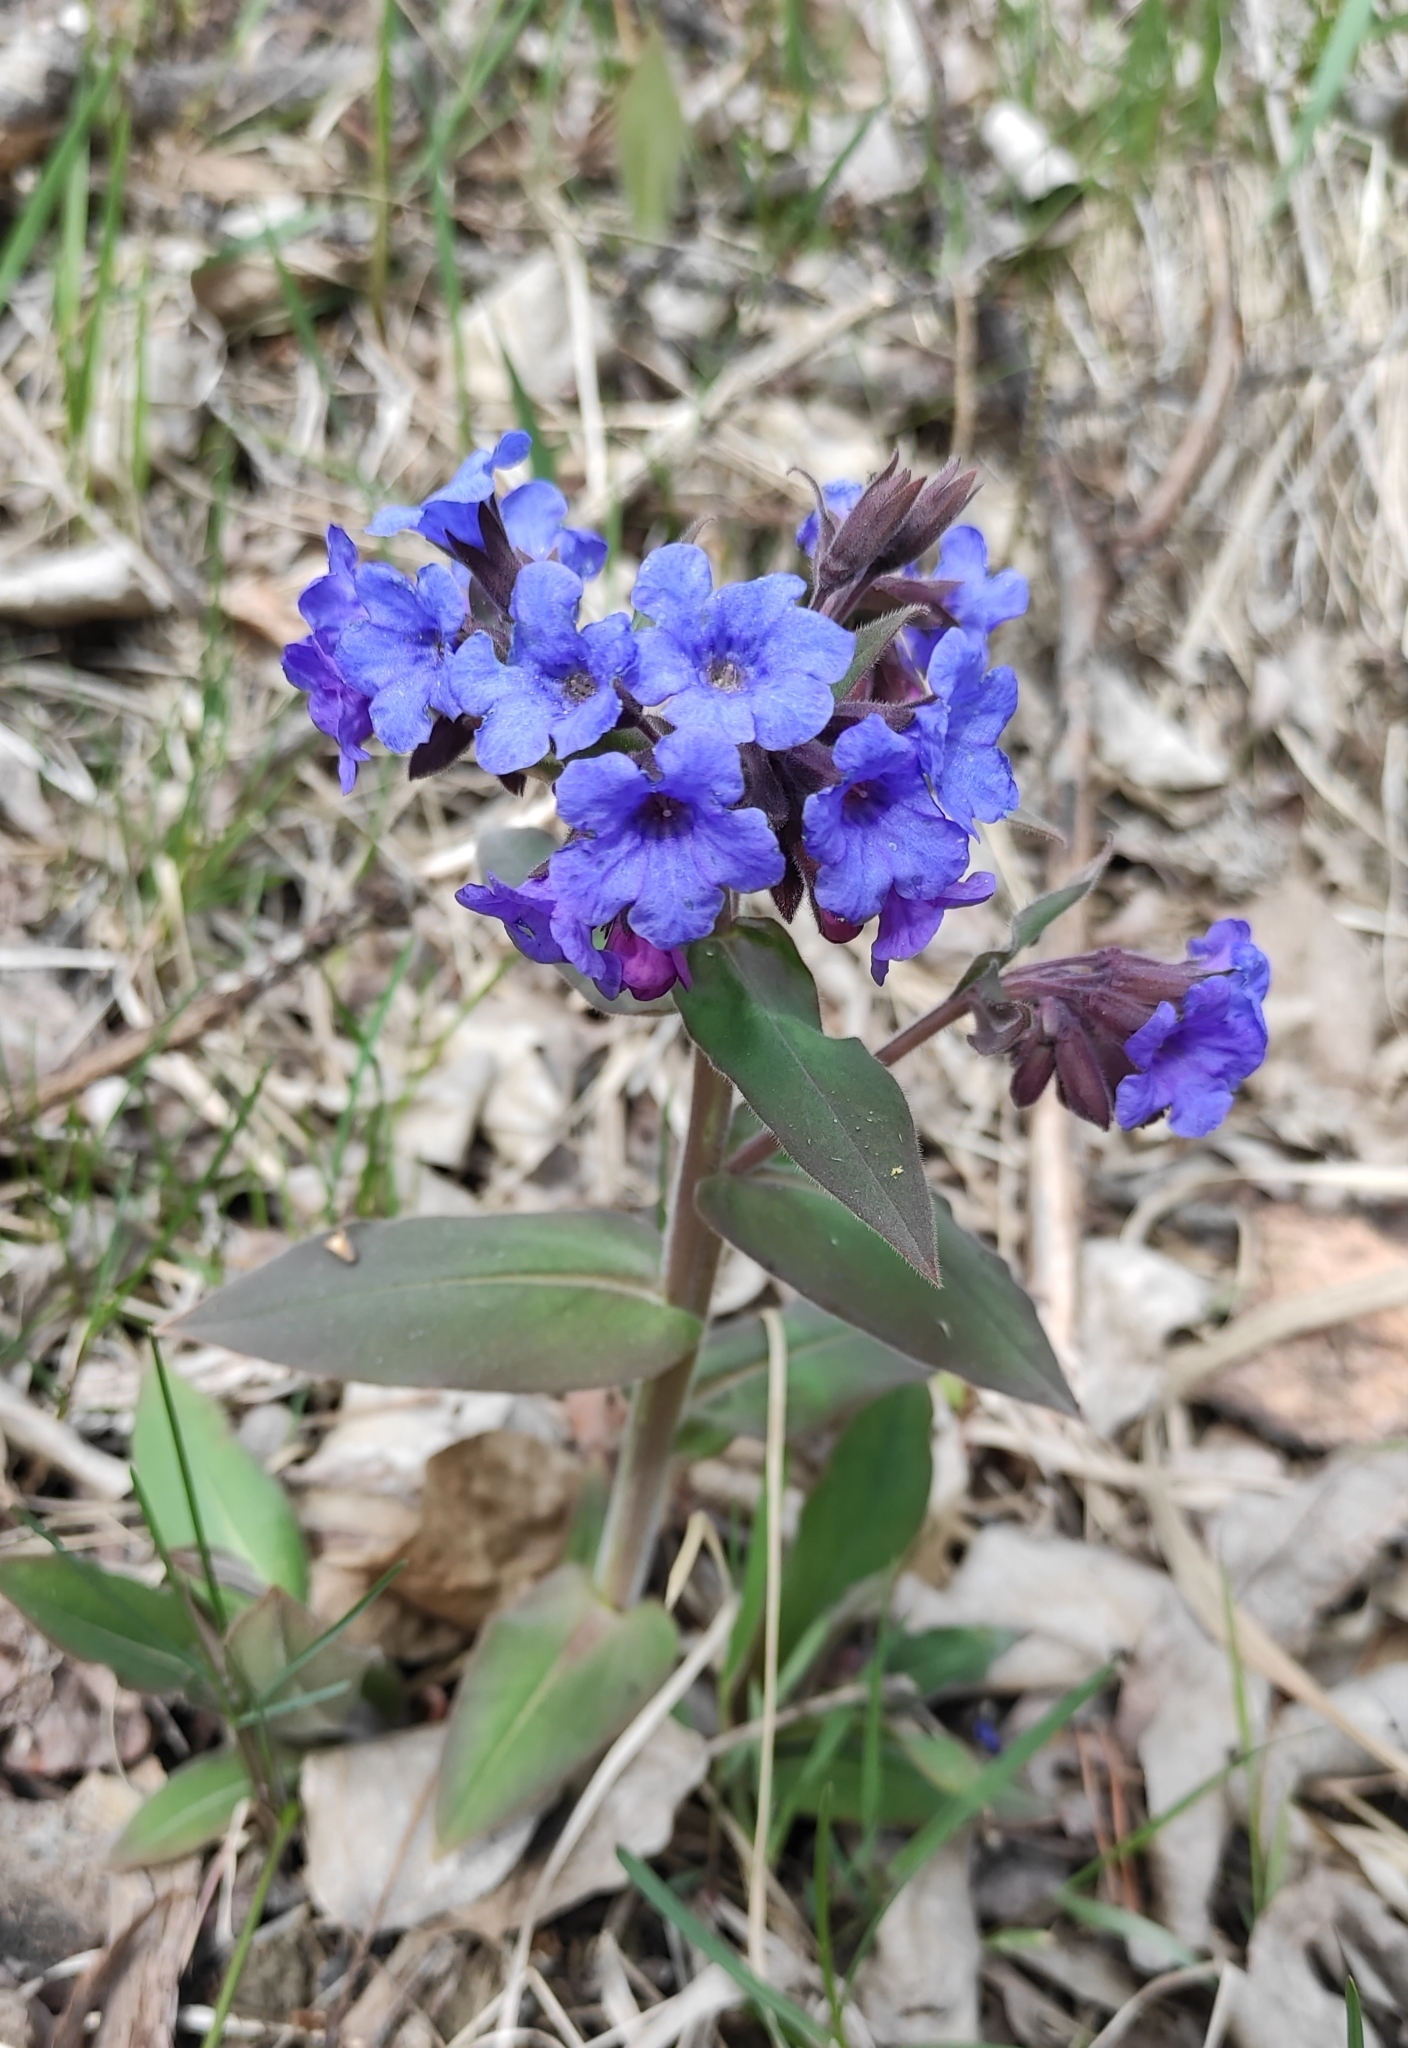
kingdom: Plantae
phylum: Tracheophyta
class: Magnoliopsida
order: Boraginales
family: Boraginaceae
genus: Pulmonaria
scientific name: Pulmonaria mollis
